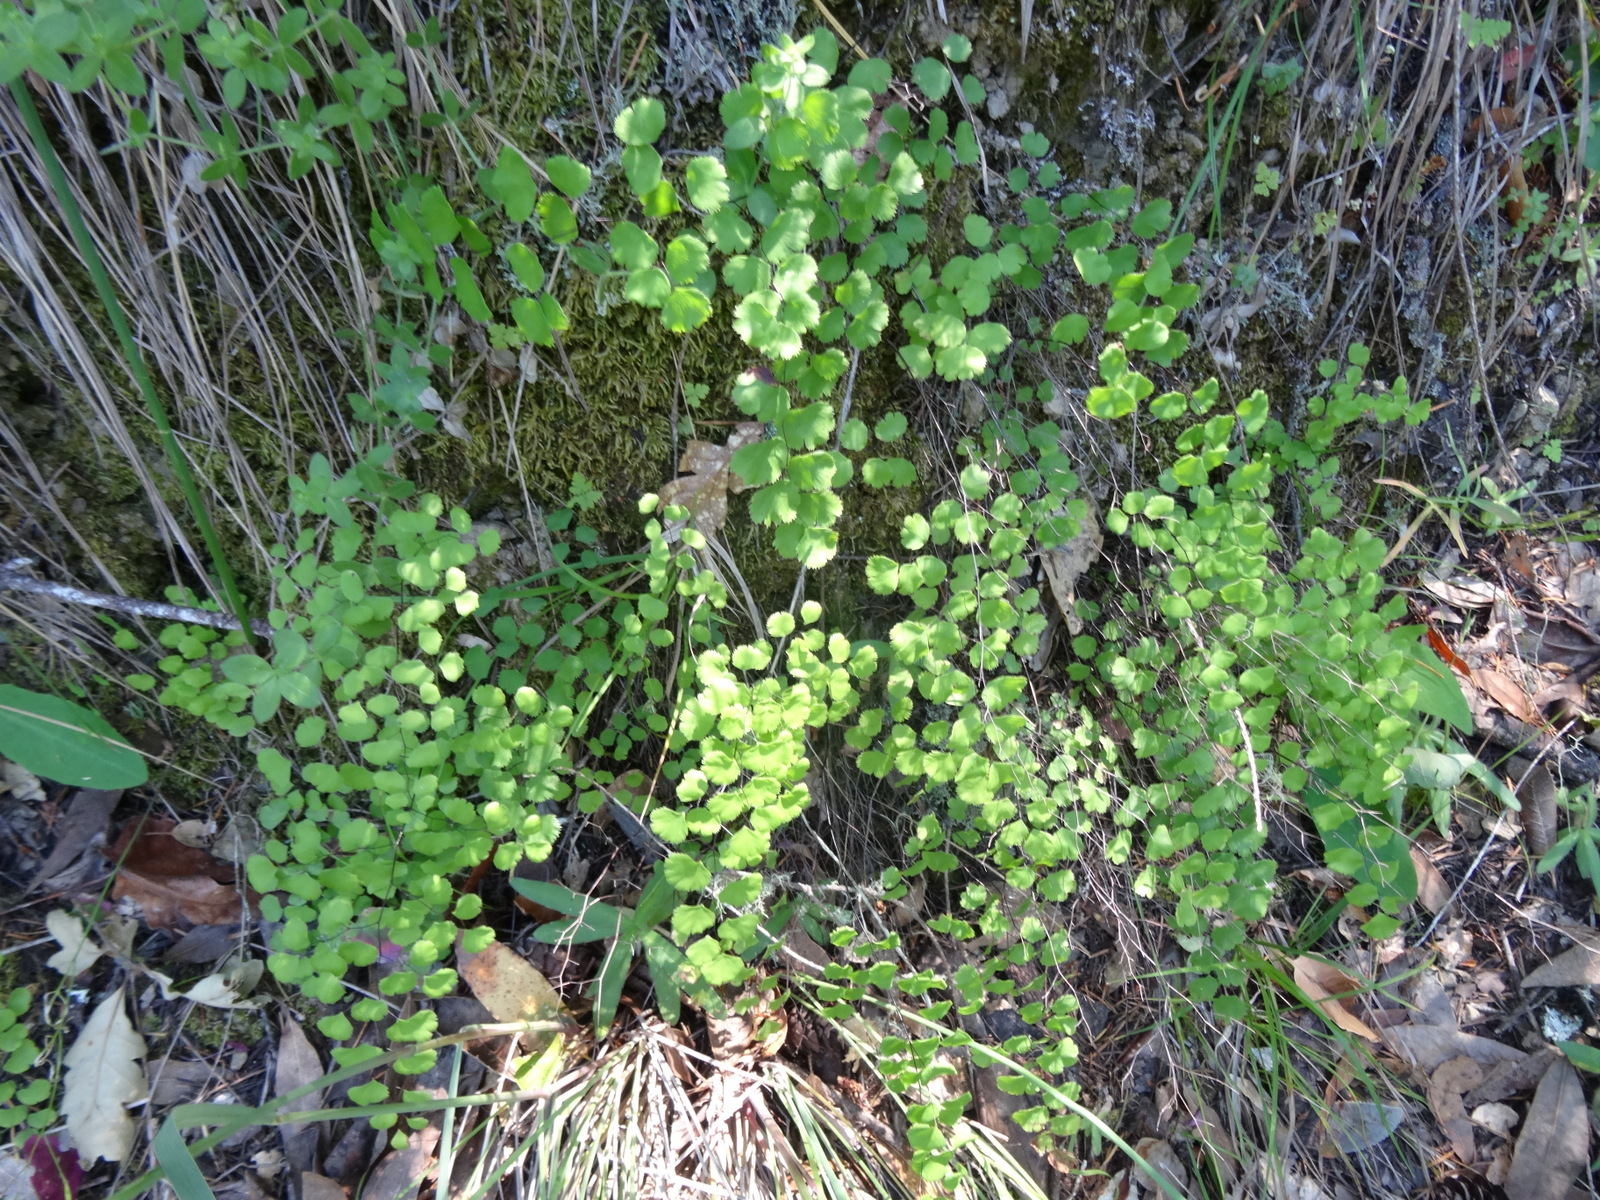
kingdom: Plantae
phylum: Tracheophyta
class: Polypodiopsida
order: Polypodiales
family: Pteridaceae
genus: Adiantum
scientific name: Adiantum jordanii
